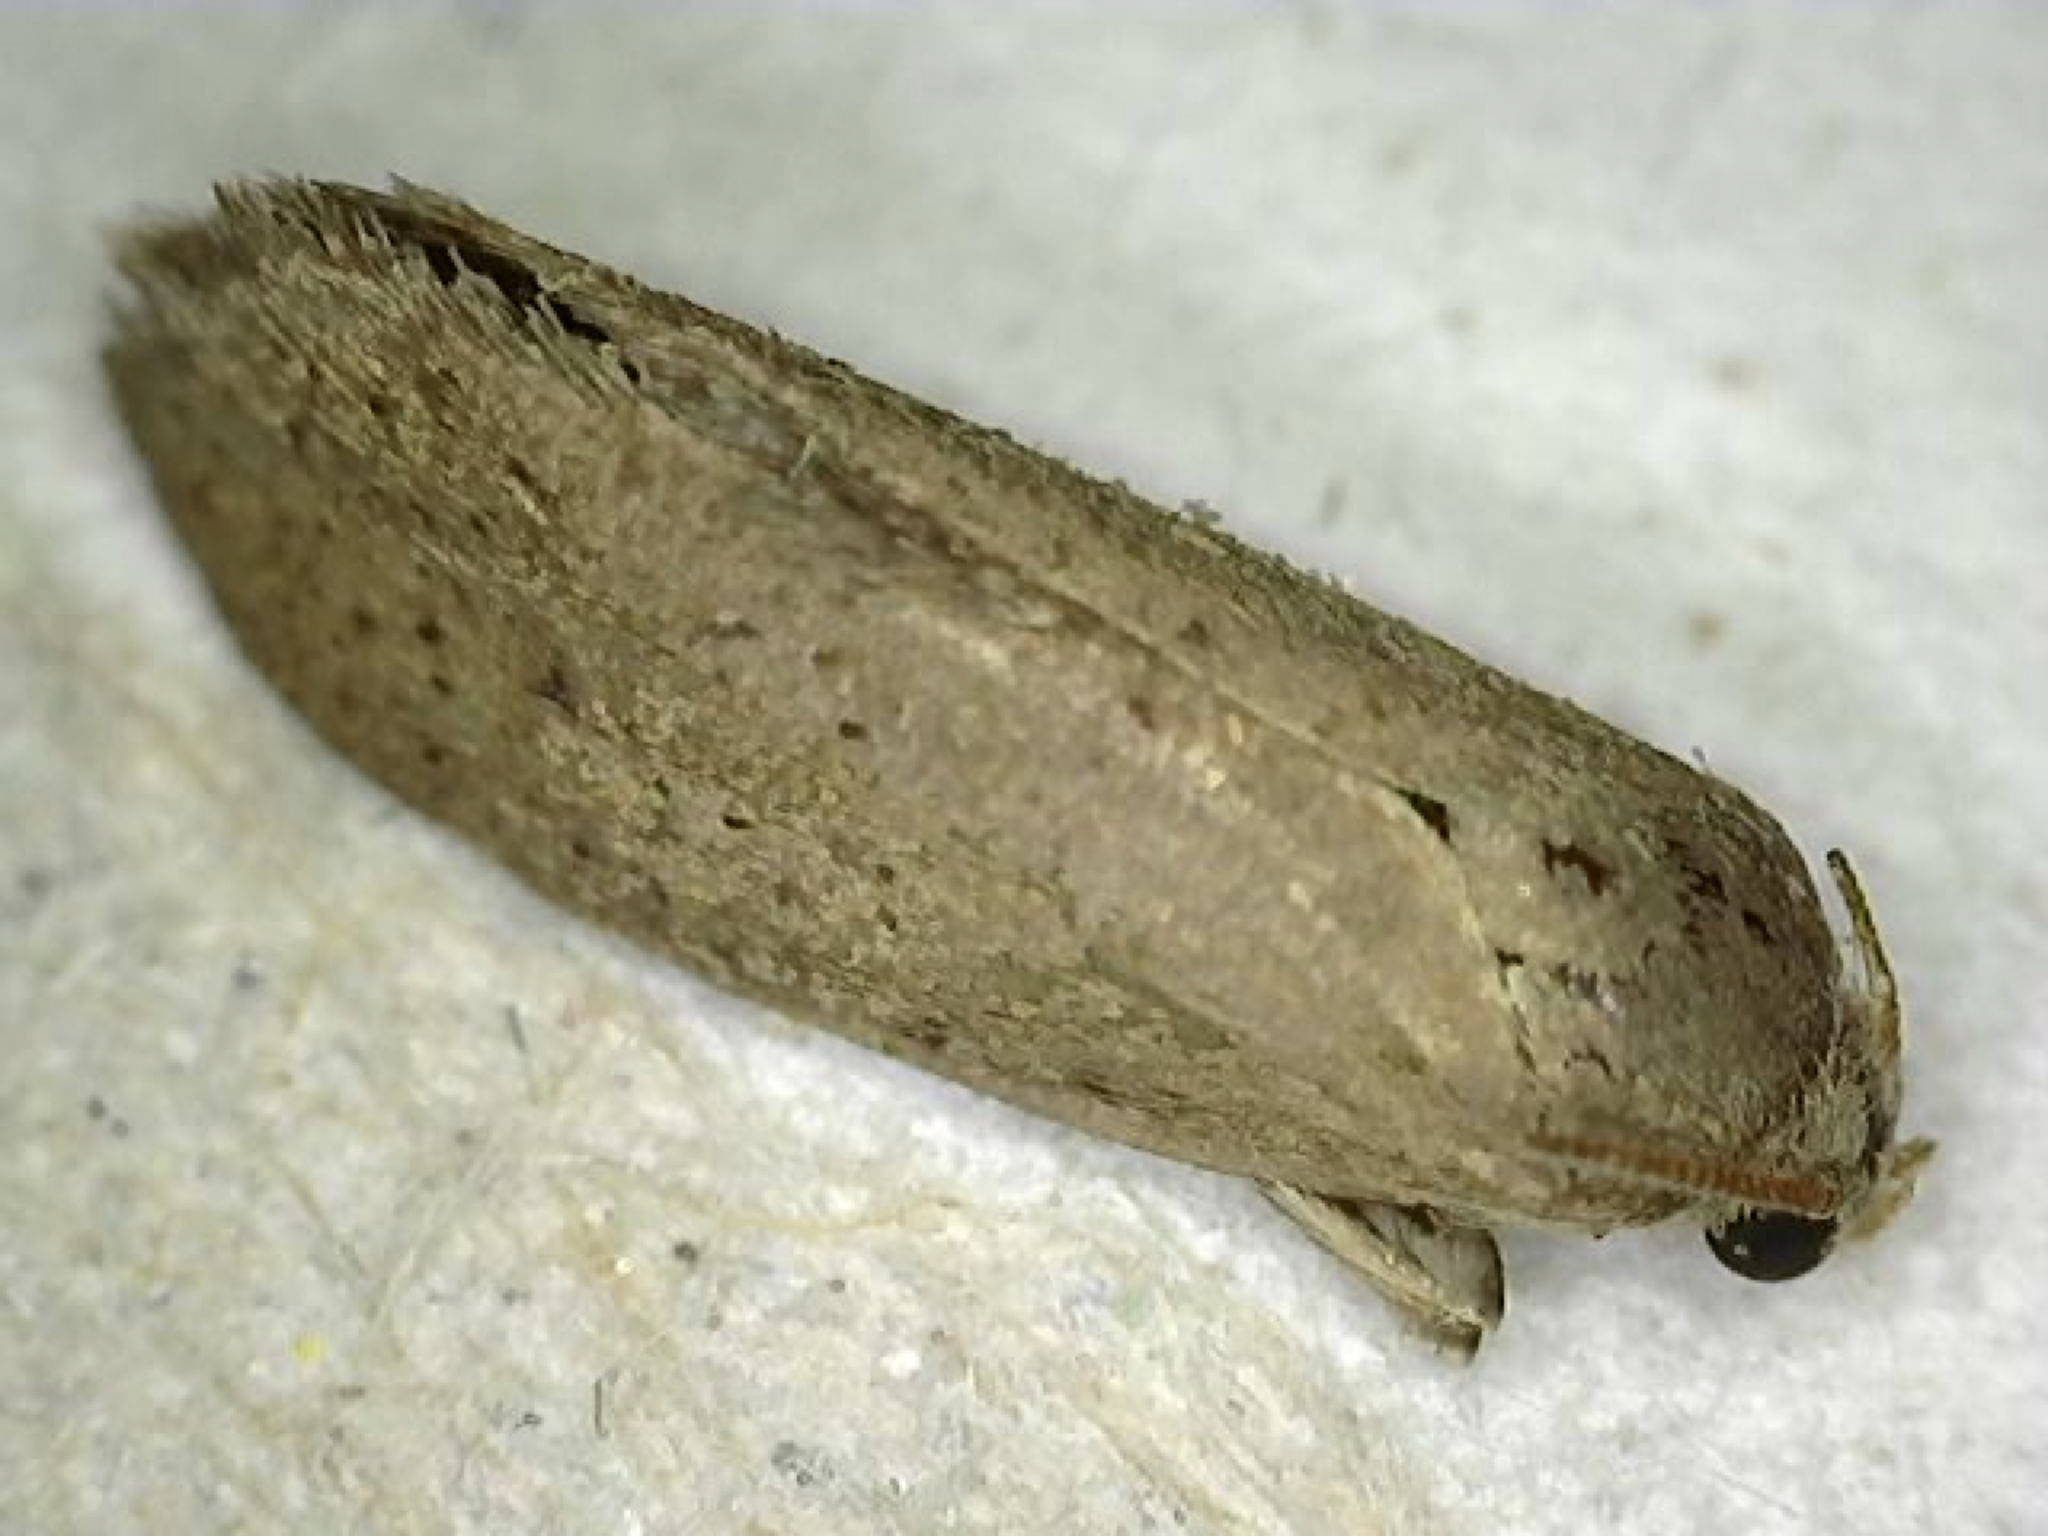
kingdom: Animalia
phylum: Arthropoda
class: Insecta
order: Lepidoptera
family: Tineidae
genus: Acrolophus
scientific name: Acrolophus
